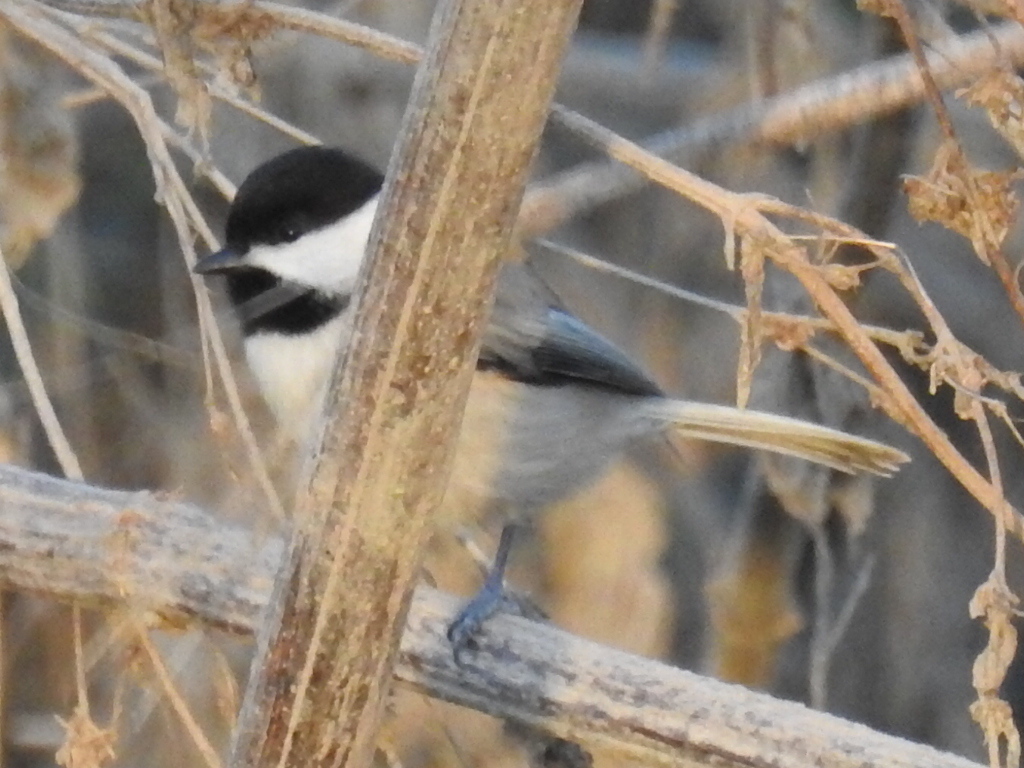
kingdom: Animalia
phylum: Chordata
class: Aves
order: Passeriformes
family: Paridae
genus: Poecile
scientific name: Poecile carolinensis
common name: Carolina chickadee
